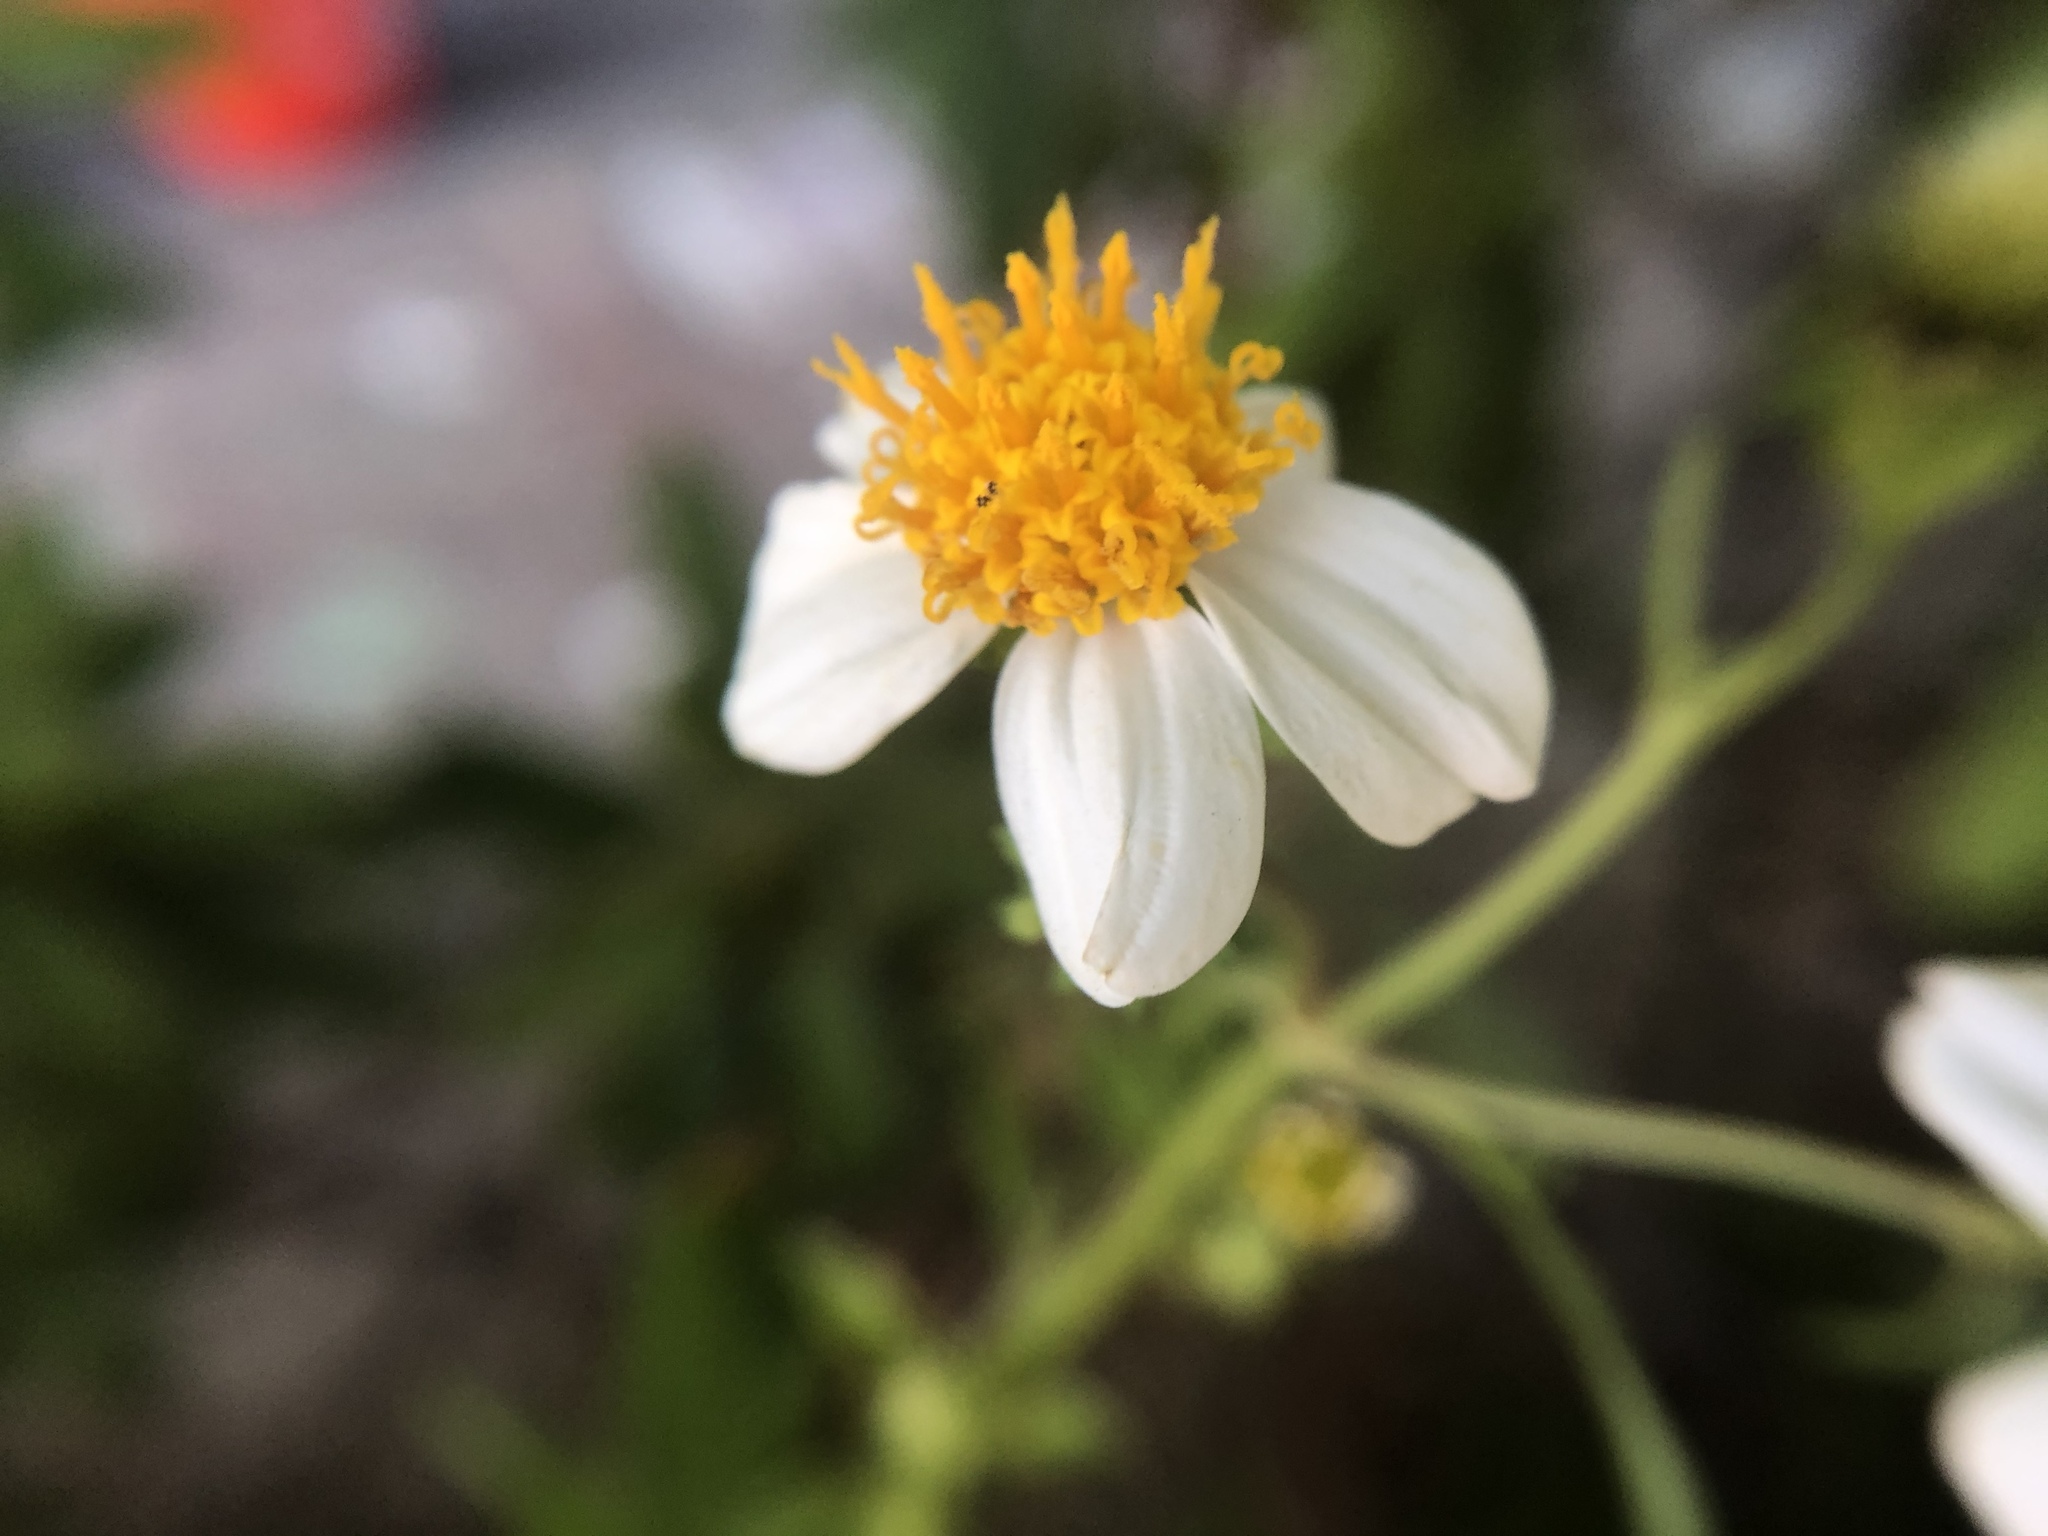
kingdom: Plantae
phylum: Tracheophyta
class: Magnoliopsida
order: Asterales
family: Asteraceae
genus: Bidens
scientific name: Bidens alba
